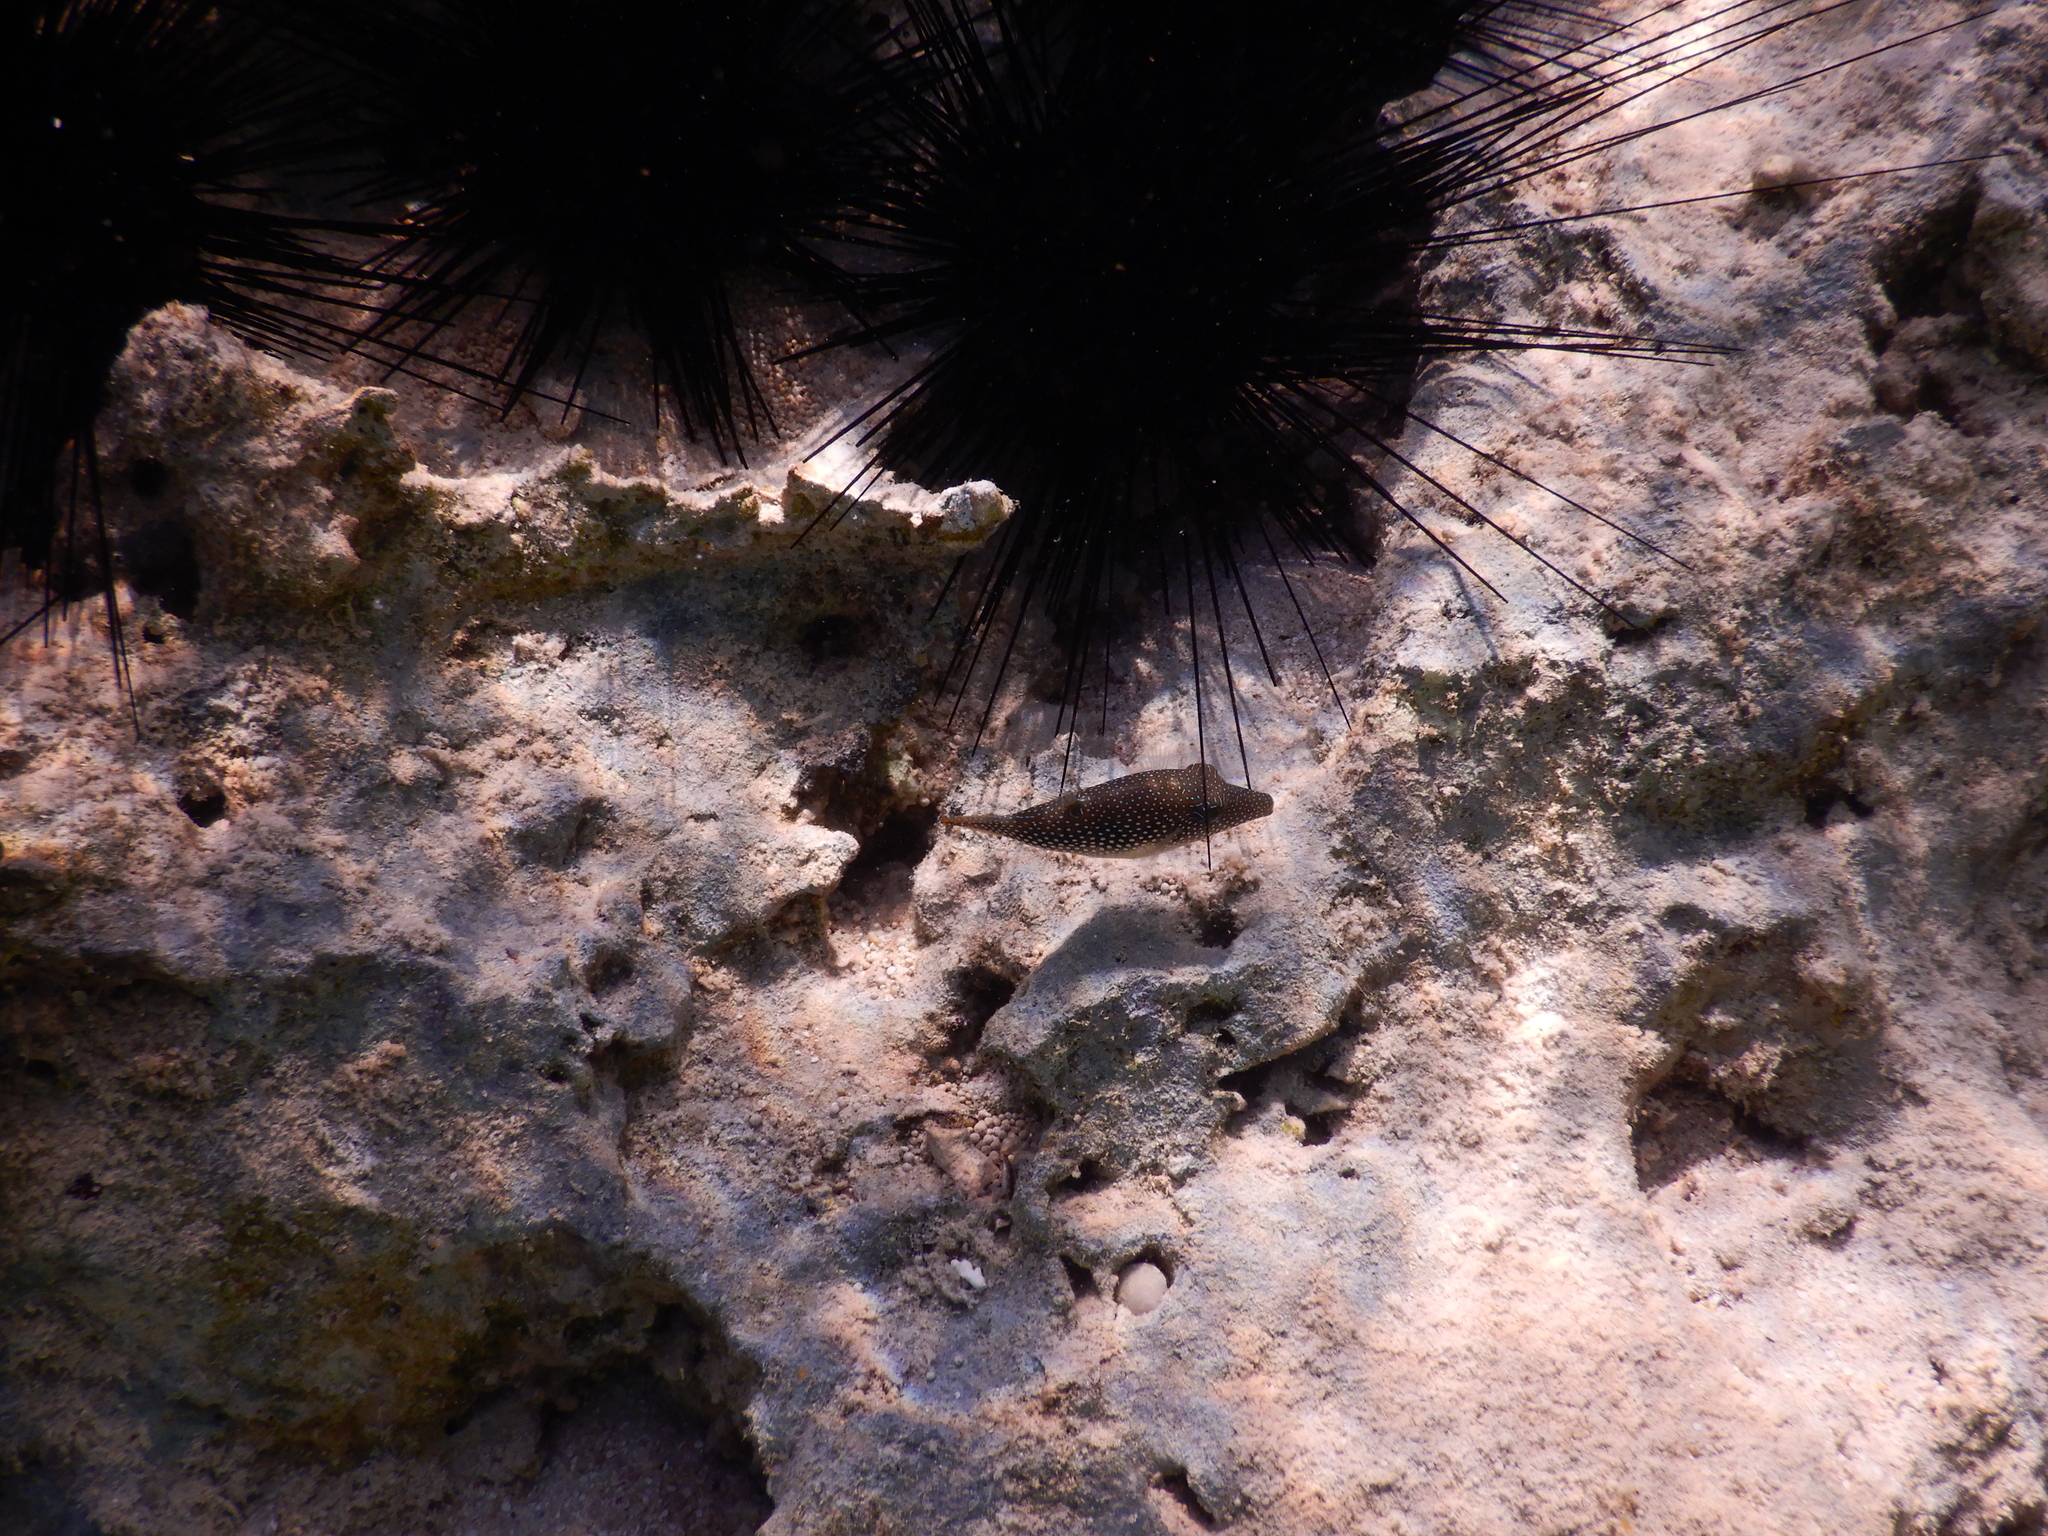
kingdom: Animalia
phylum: Chordata
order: Tetraodontiformes
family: Tetraodontidae
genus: Canthigaster
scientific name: Canthigaster margaritata
